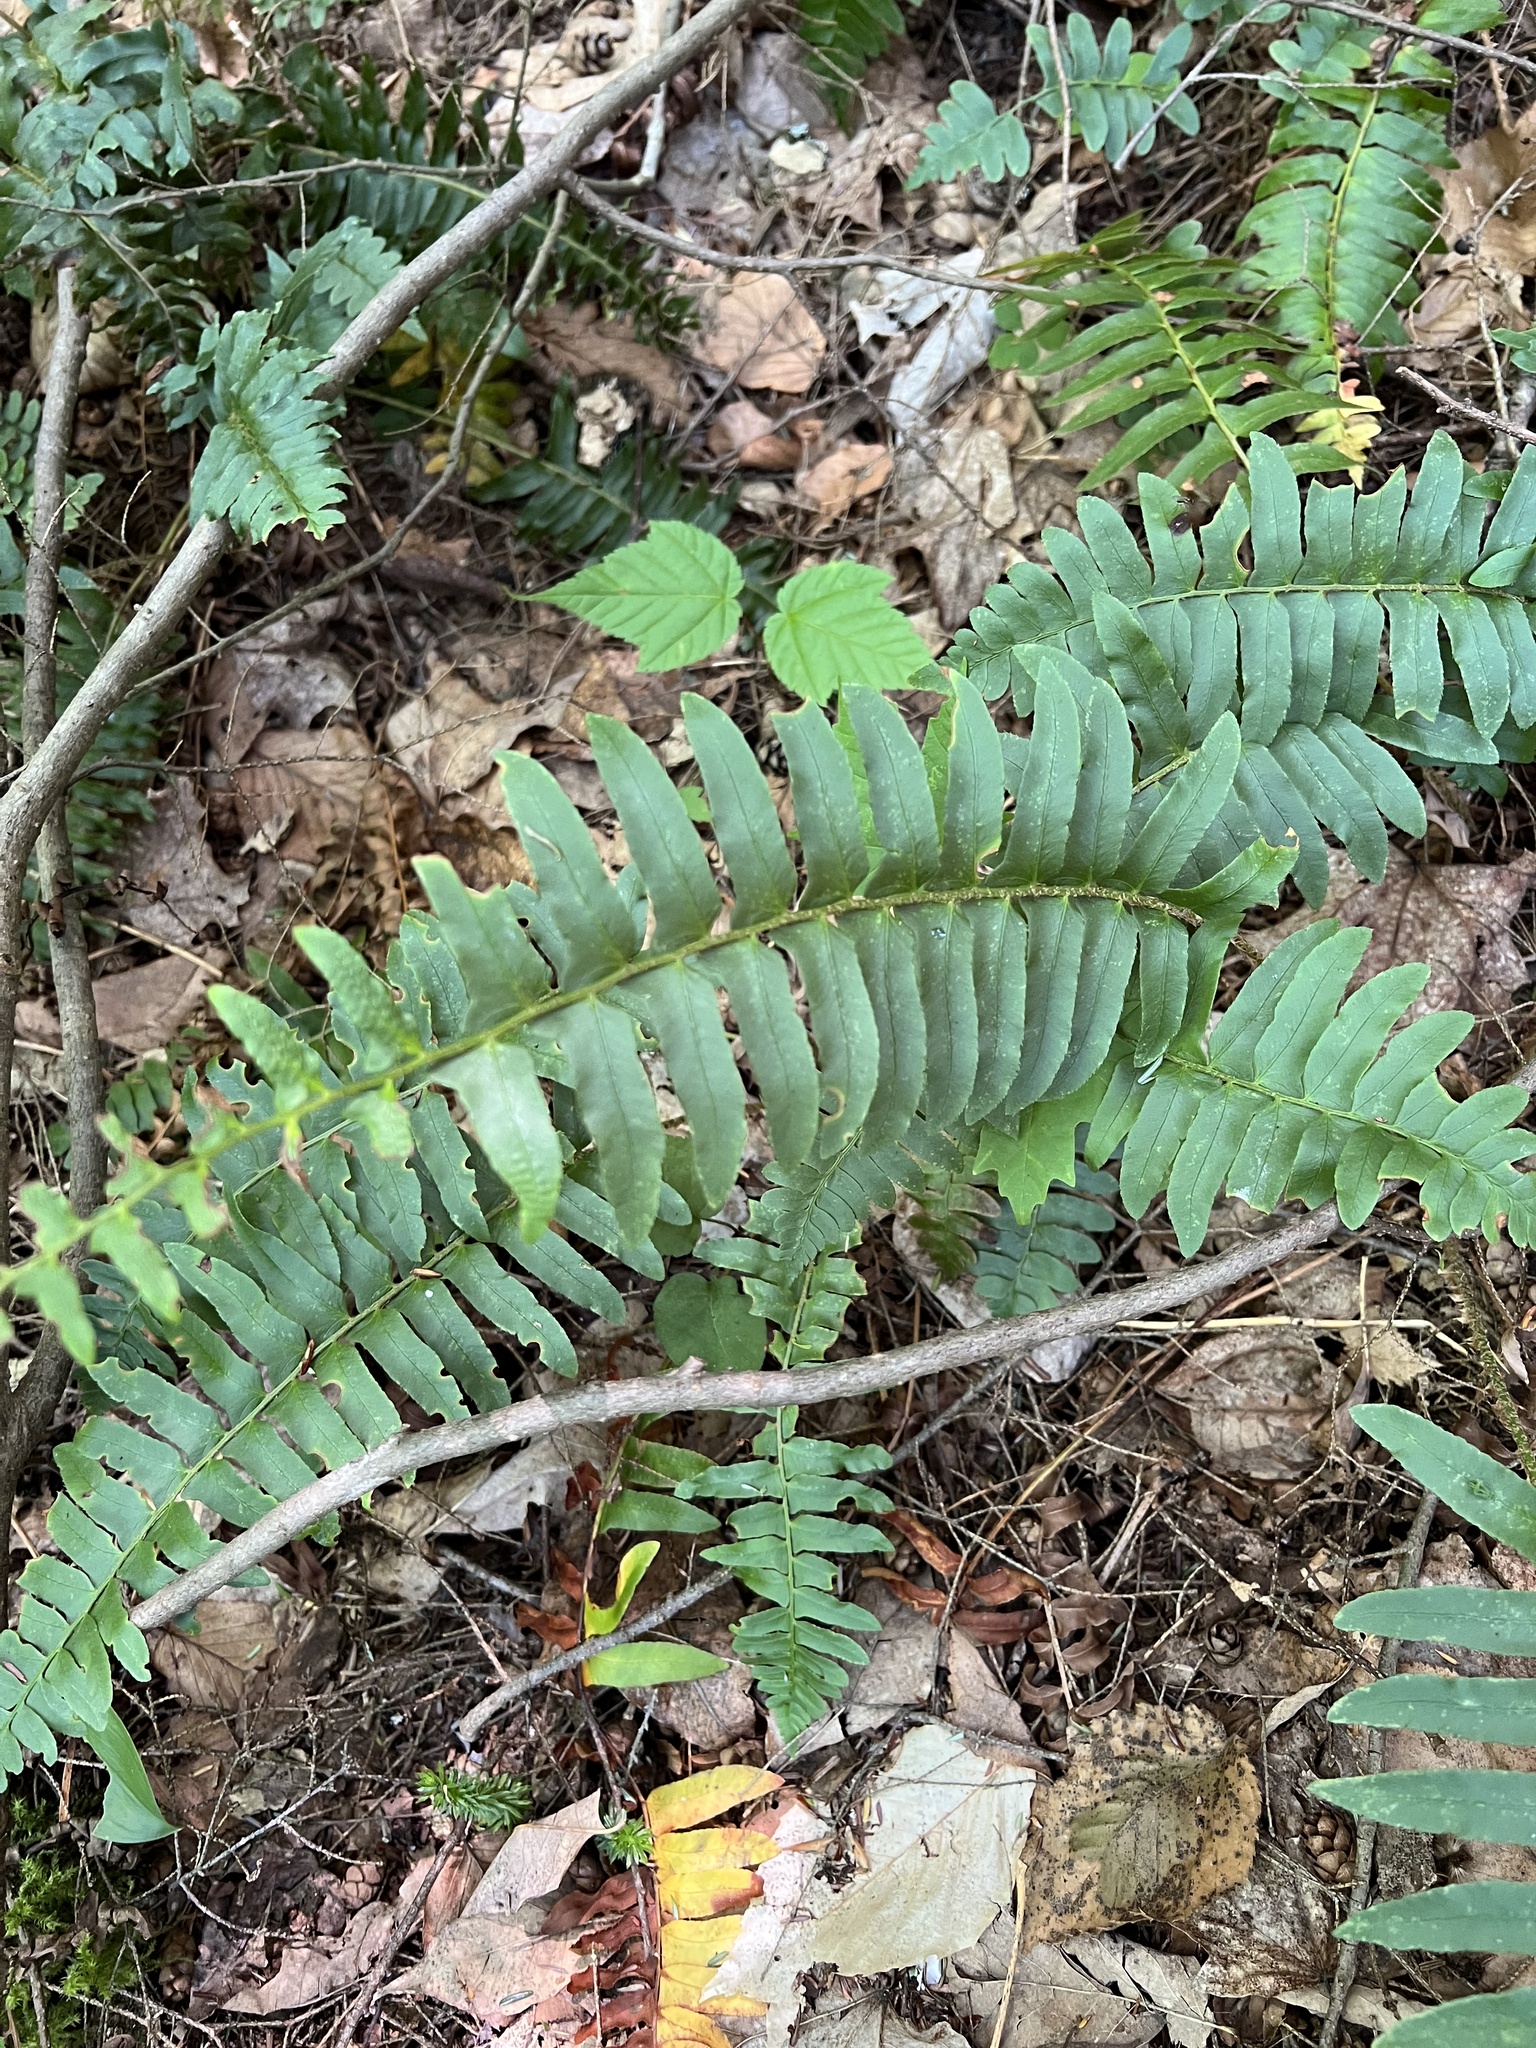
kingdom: Plantae
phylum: Tracheophyta
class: Polypodiopsida
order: Polypodiales
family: Dryopteridaceae
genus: Polystichum
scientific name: Polystichum acrostichoides
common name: Christmas fern
